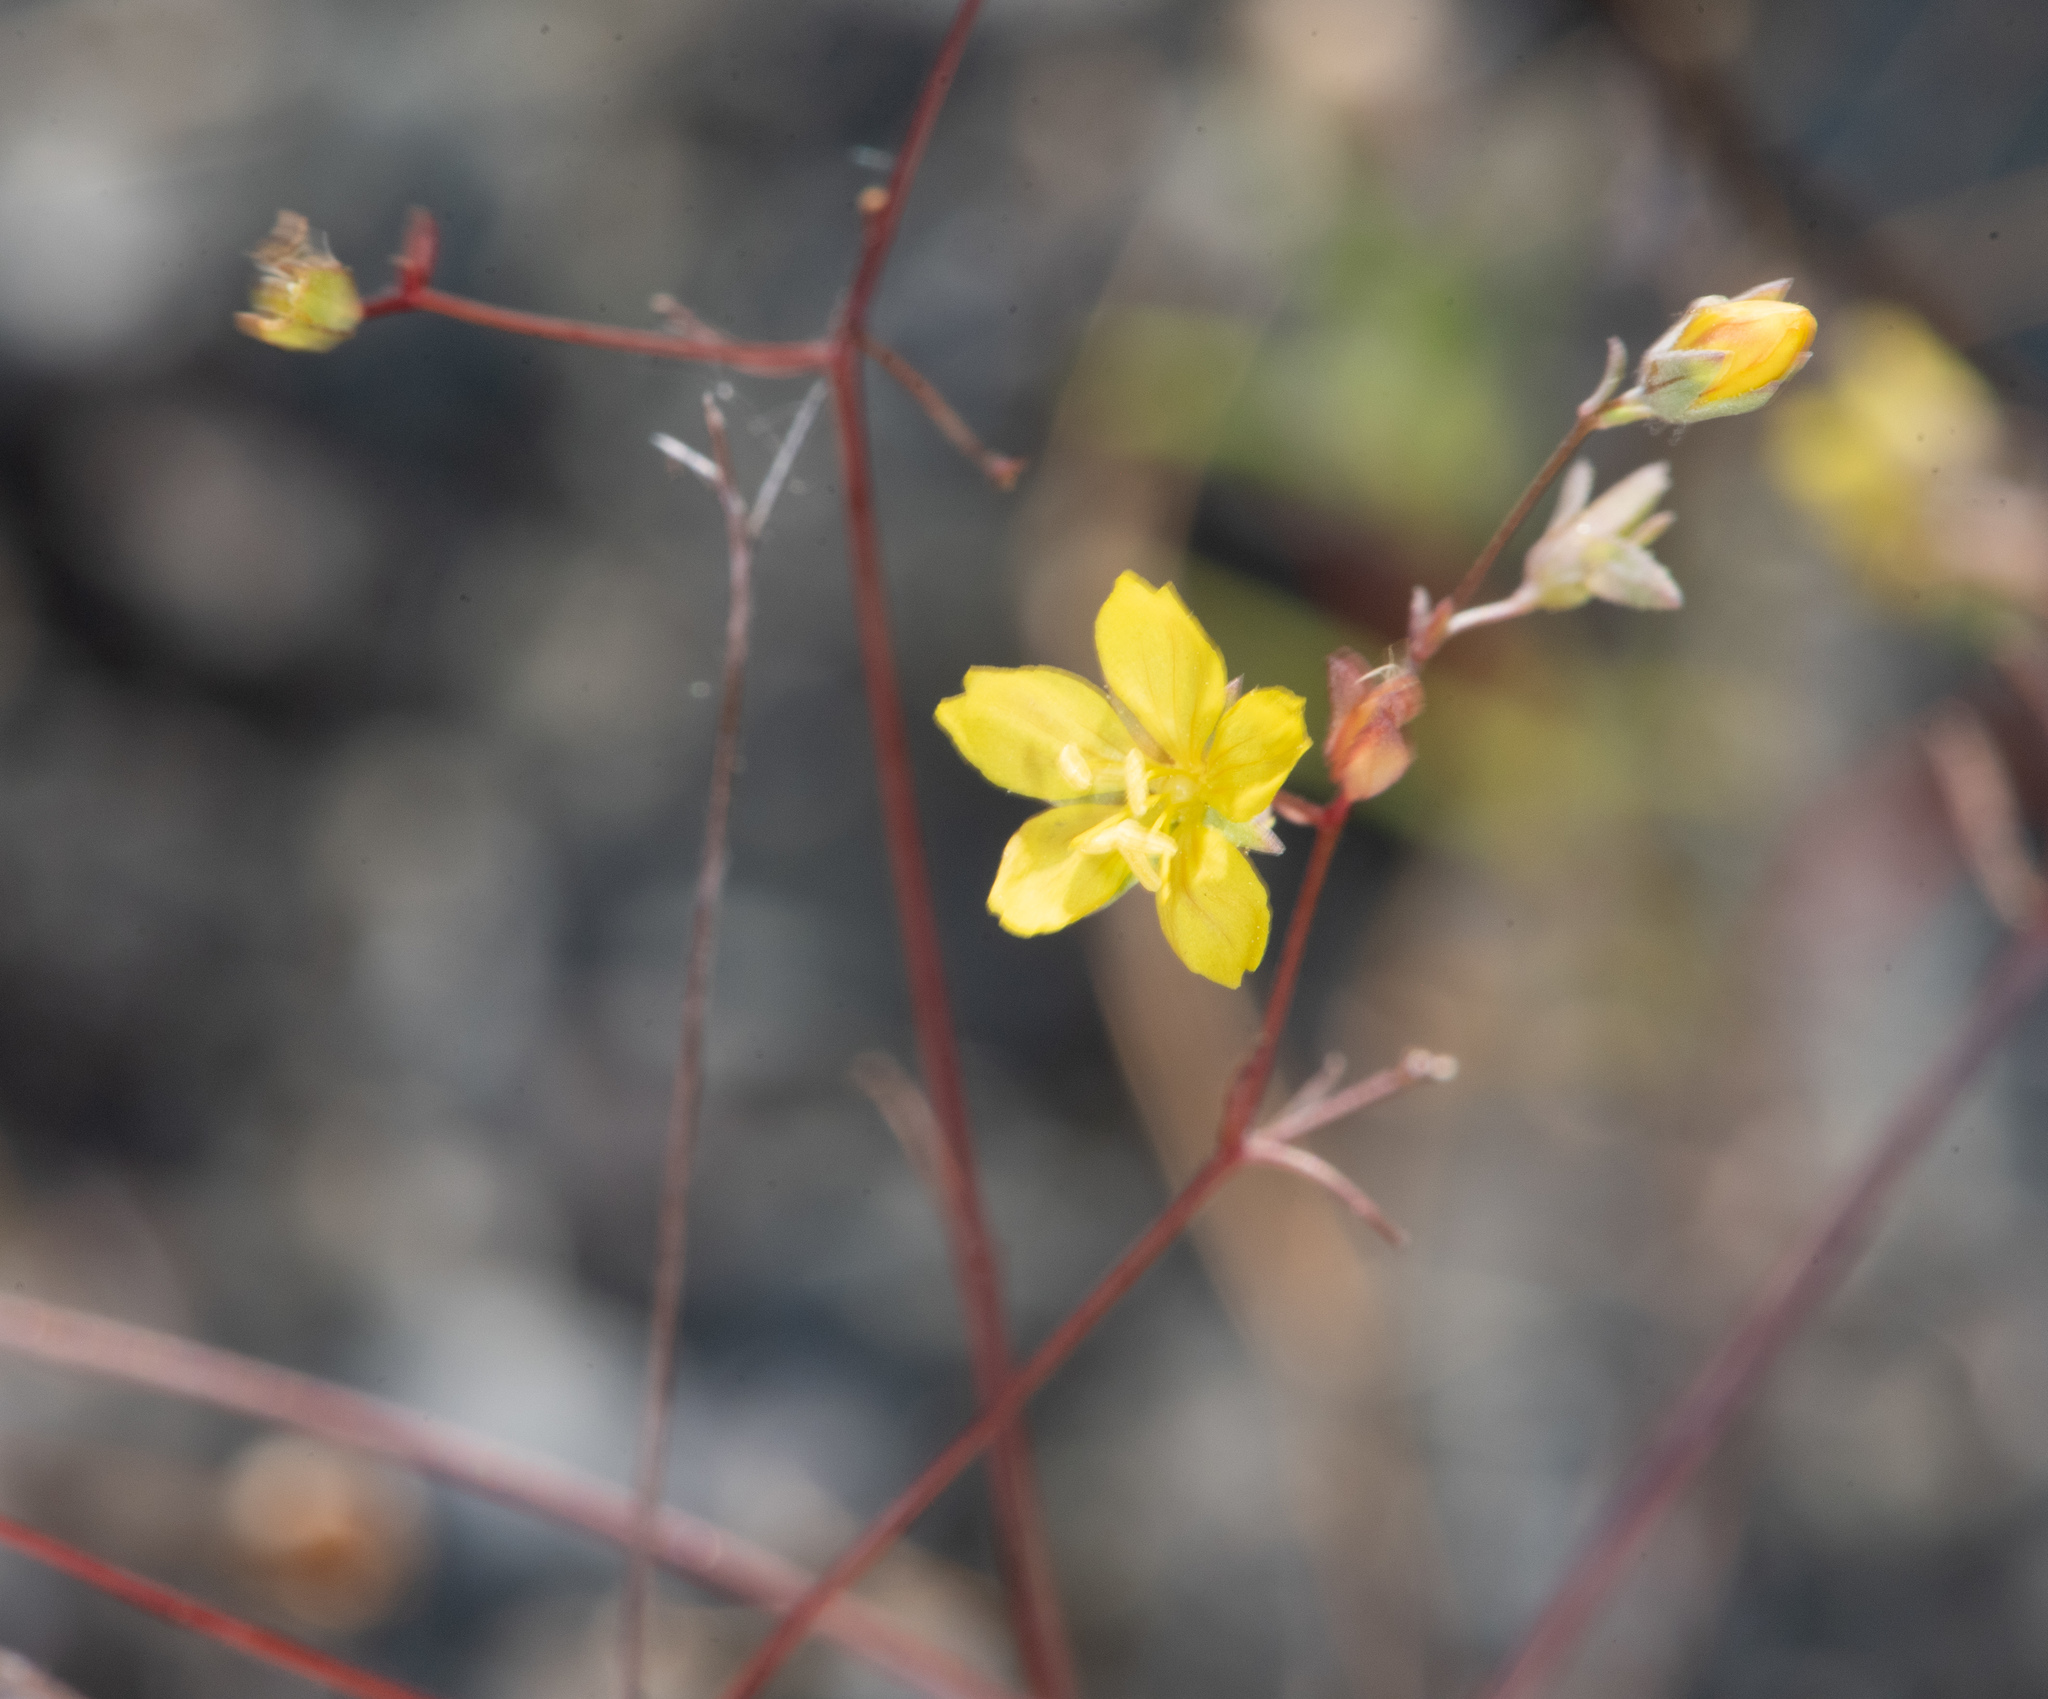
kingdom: Plantae
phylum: Tracheophyta
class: Magnoliopsida
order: Malpighiales
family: Linaceae
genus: Hesperolinon
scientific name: Hesperolinon bicarpellatum
